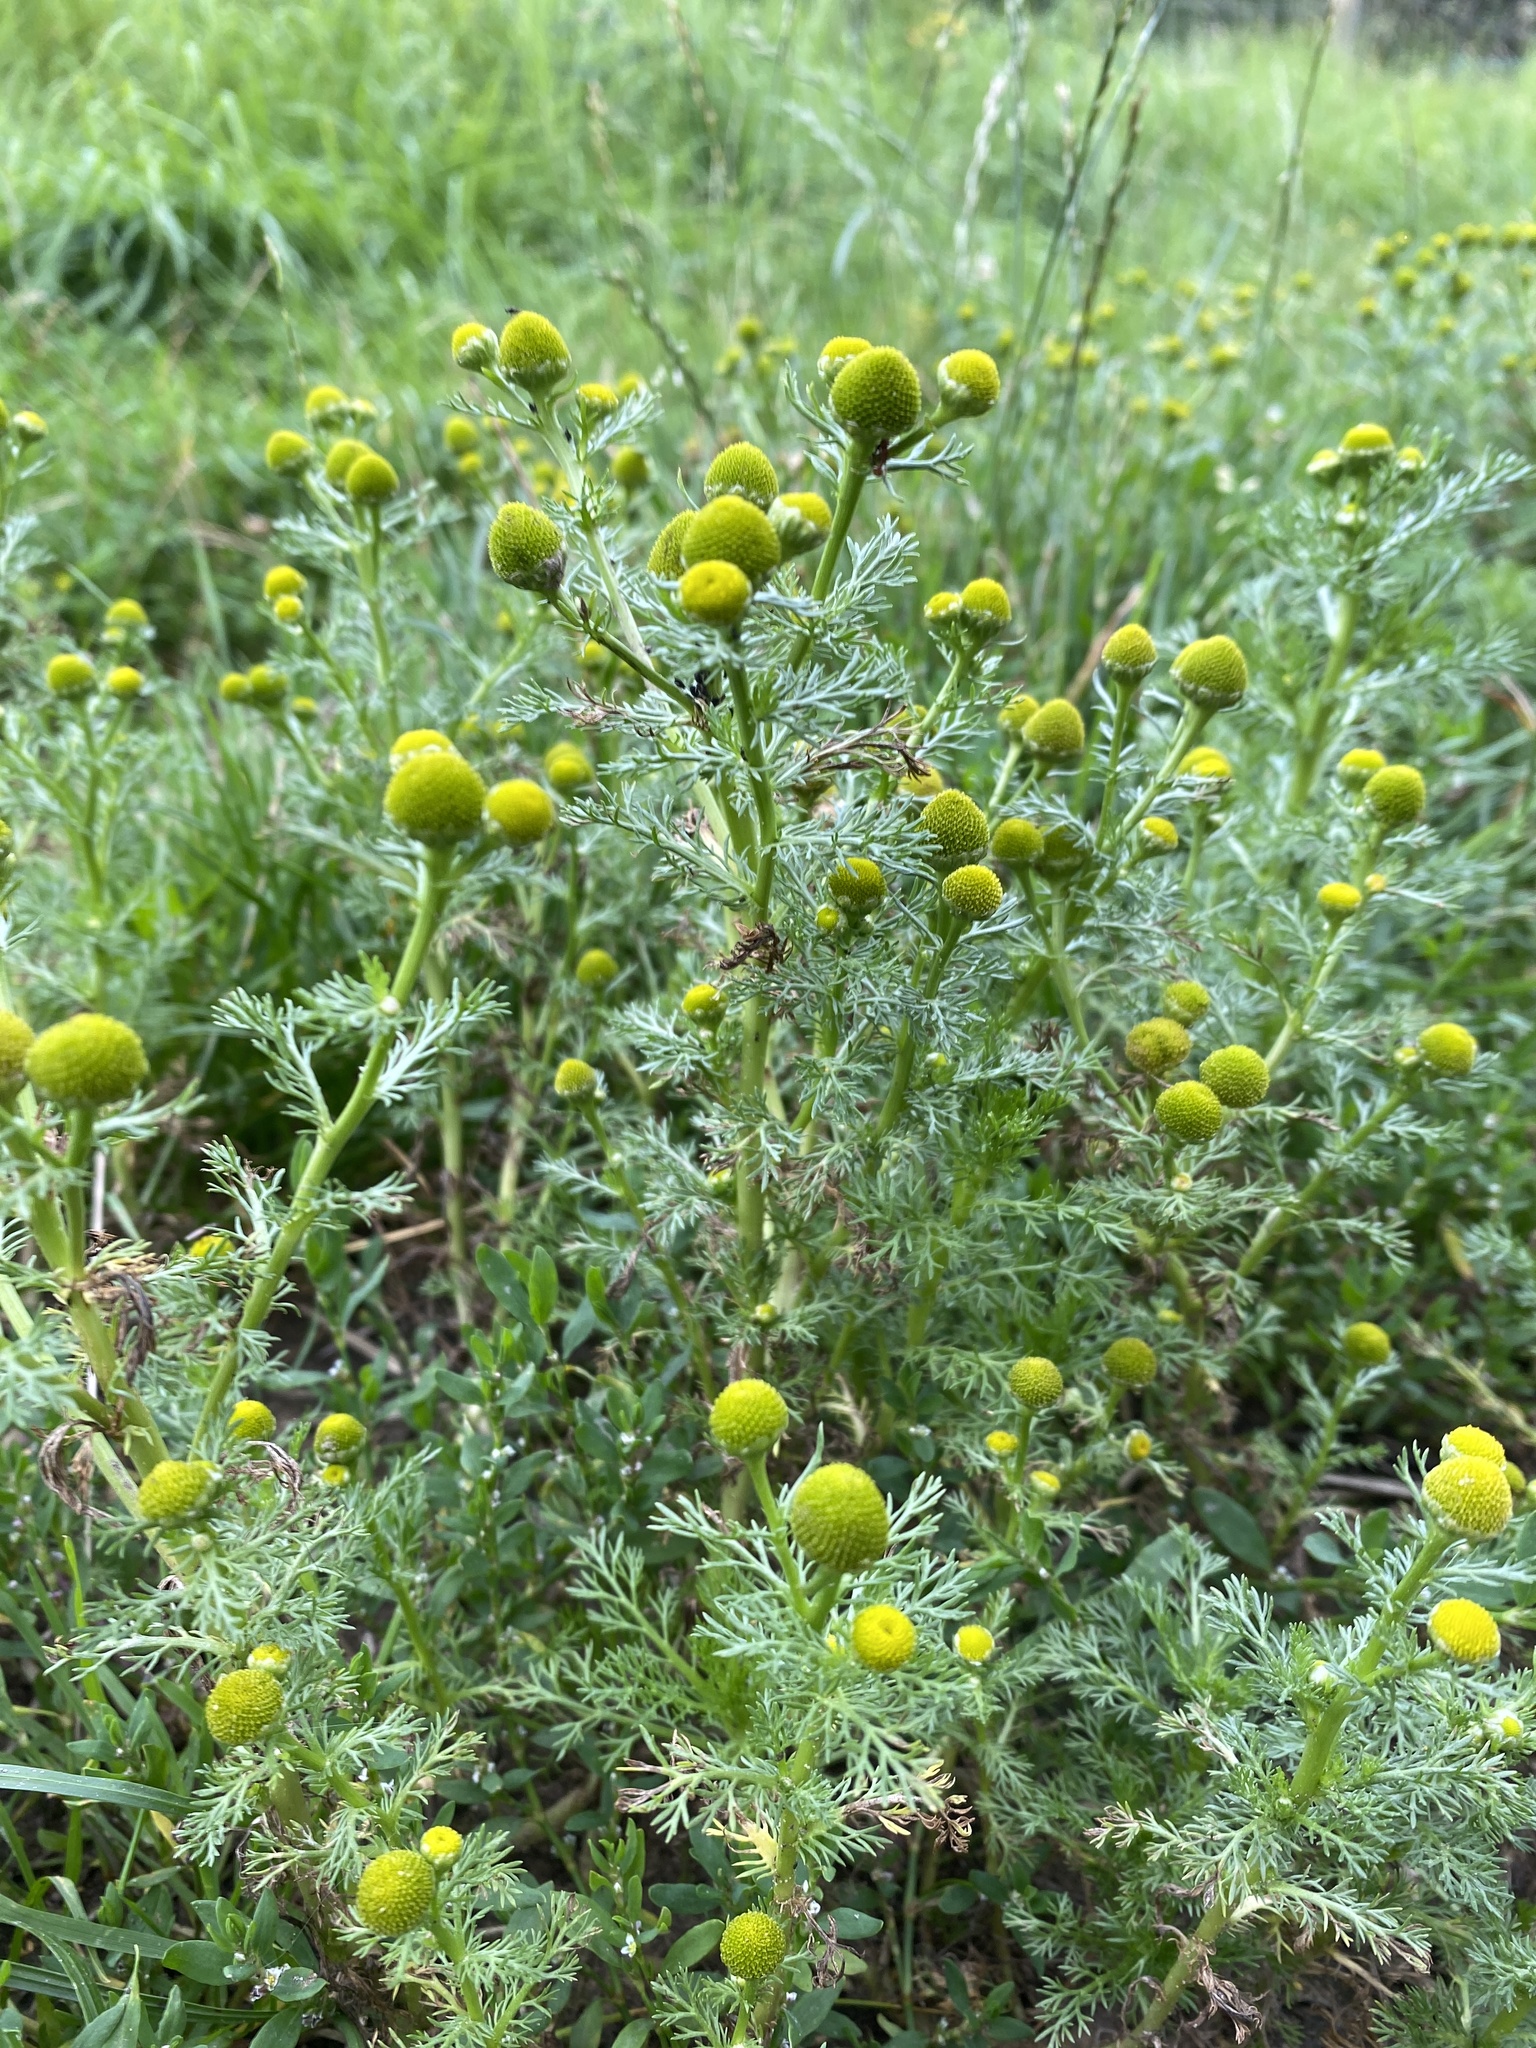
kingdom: Plantae
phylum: Tracheophyta
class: Magnoliopsida
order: Asterales
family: Asteraceae
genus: Matricaria
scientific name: Matricaria discoidea
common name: Disc mayweed
